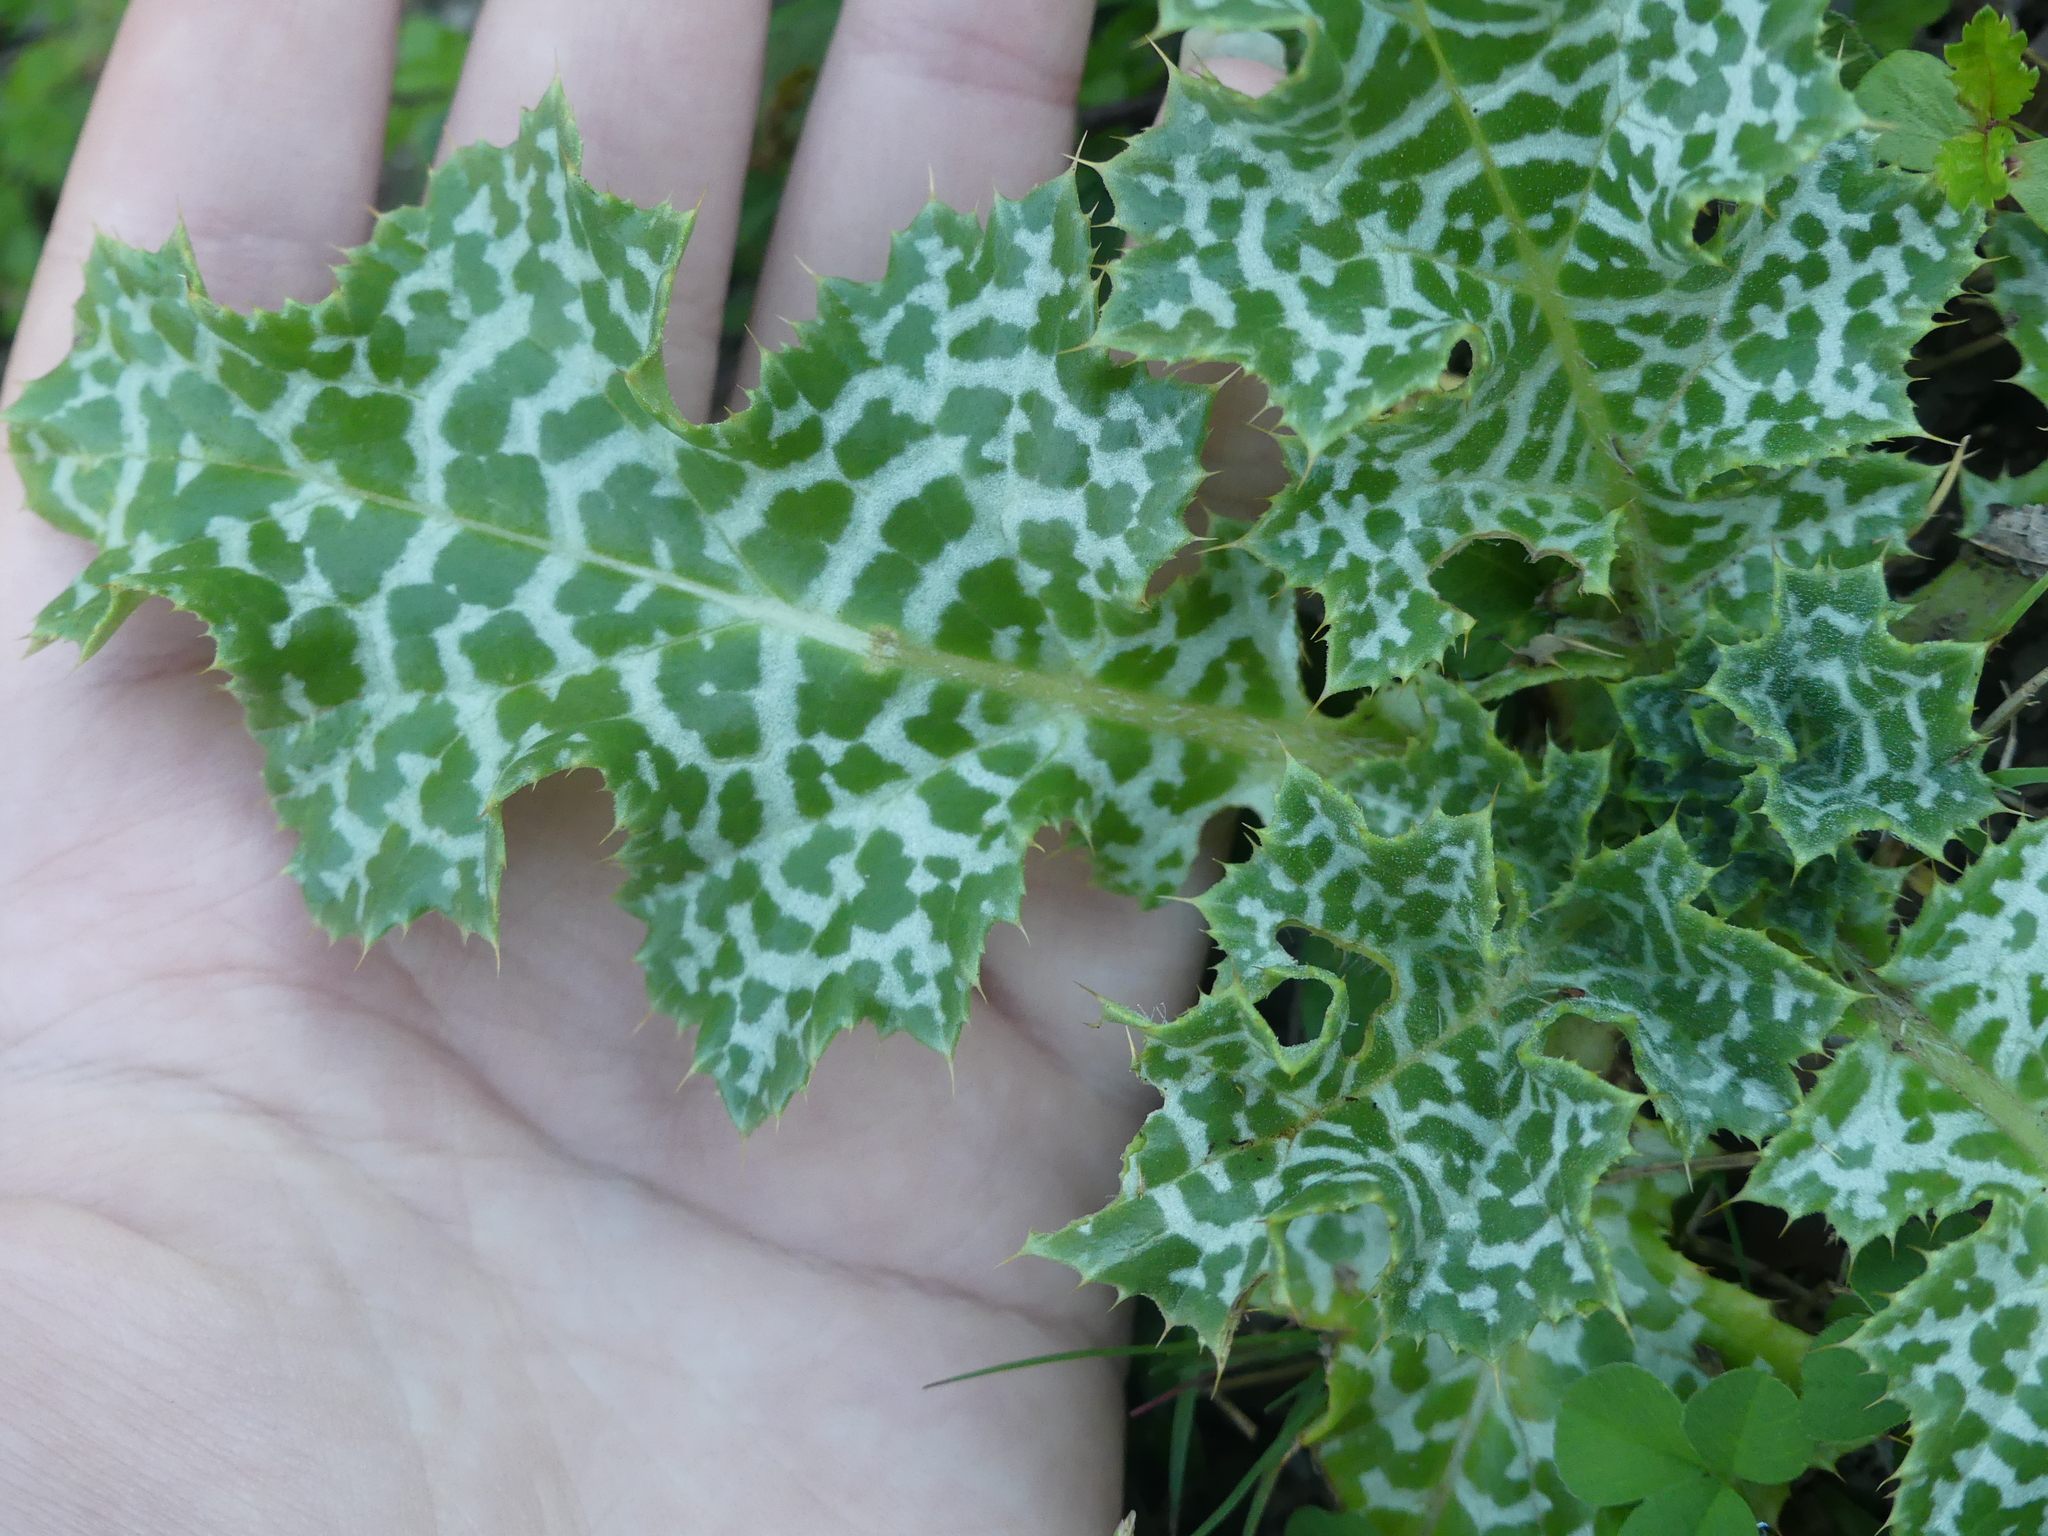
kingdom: Plantae
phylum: Tracheophyta
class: Magnoliopsida
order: Asterales
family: Asteraceae
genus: Silybum
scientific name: Silybum marianum
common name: Milk thistle
